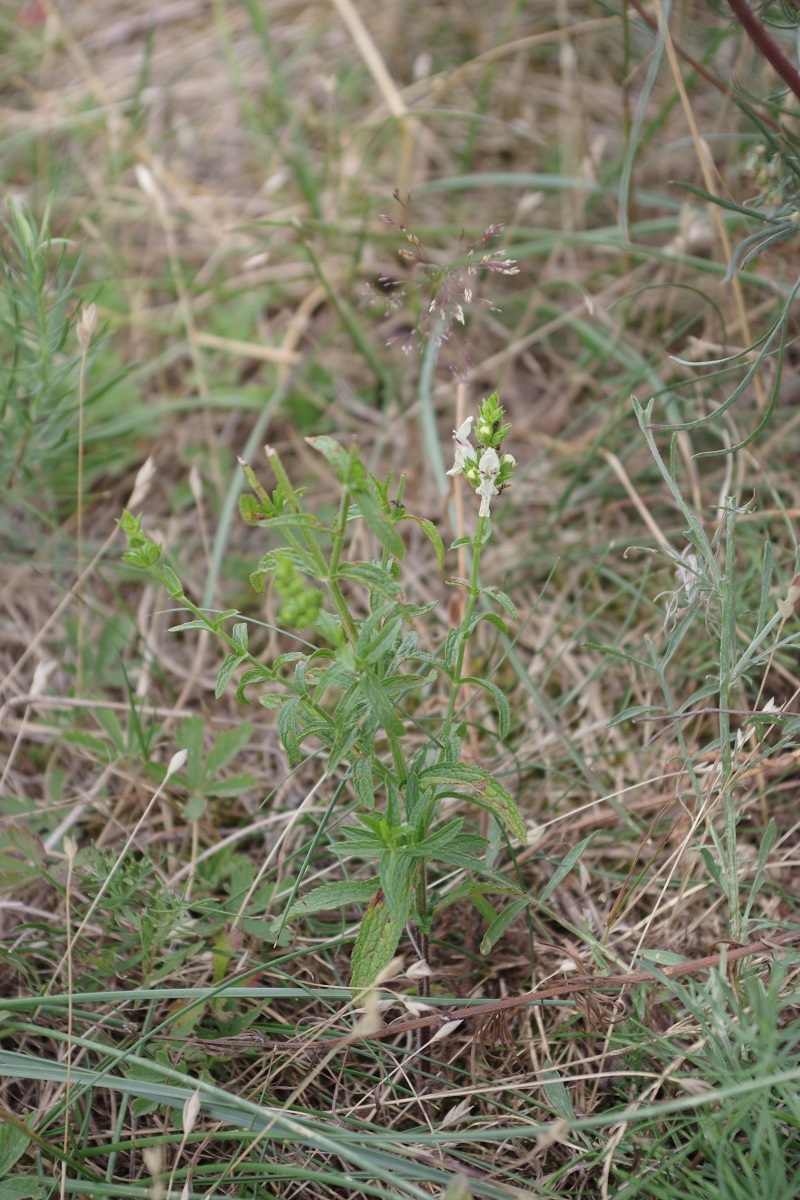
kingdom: Plantae
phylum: Tracheophyta
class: Magnoliopsida
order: Lamiales
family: Lamiaceae
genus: Stachys
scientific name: Stachys recta
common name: Perennial yellow-woundwort
